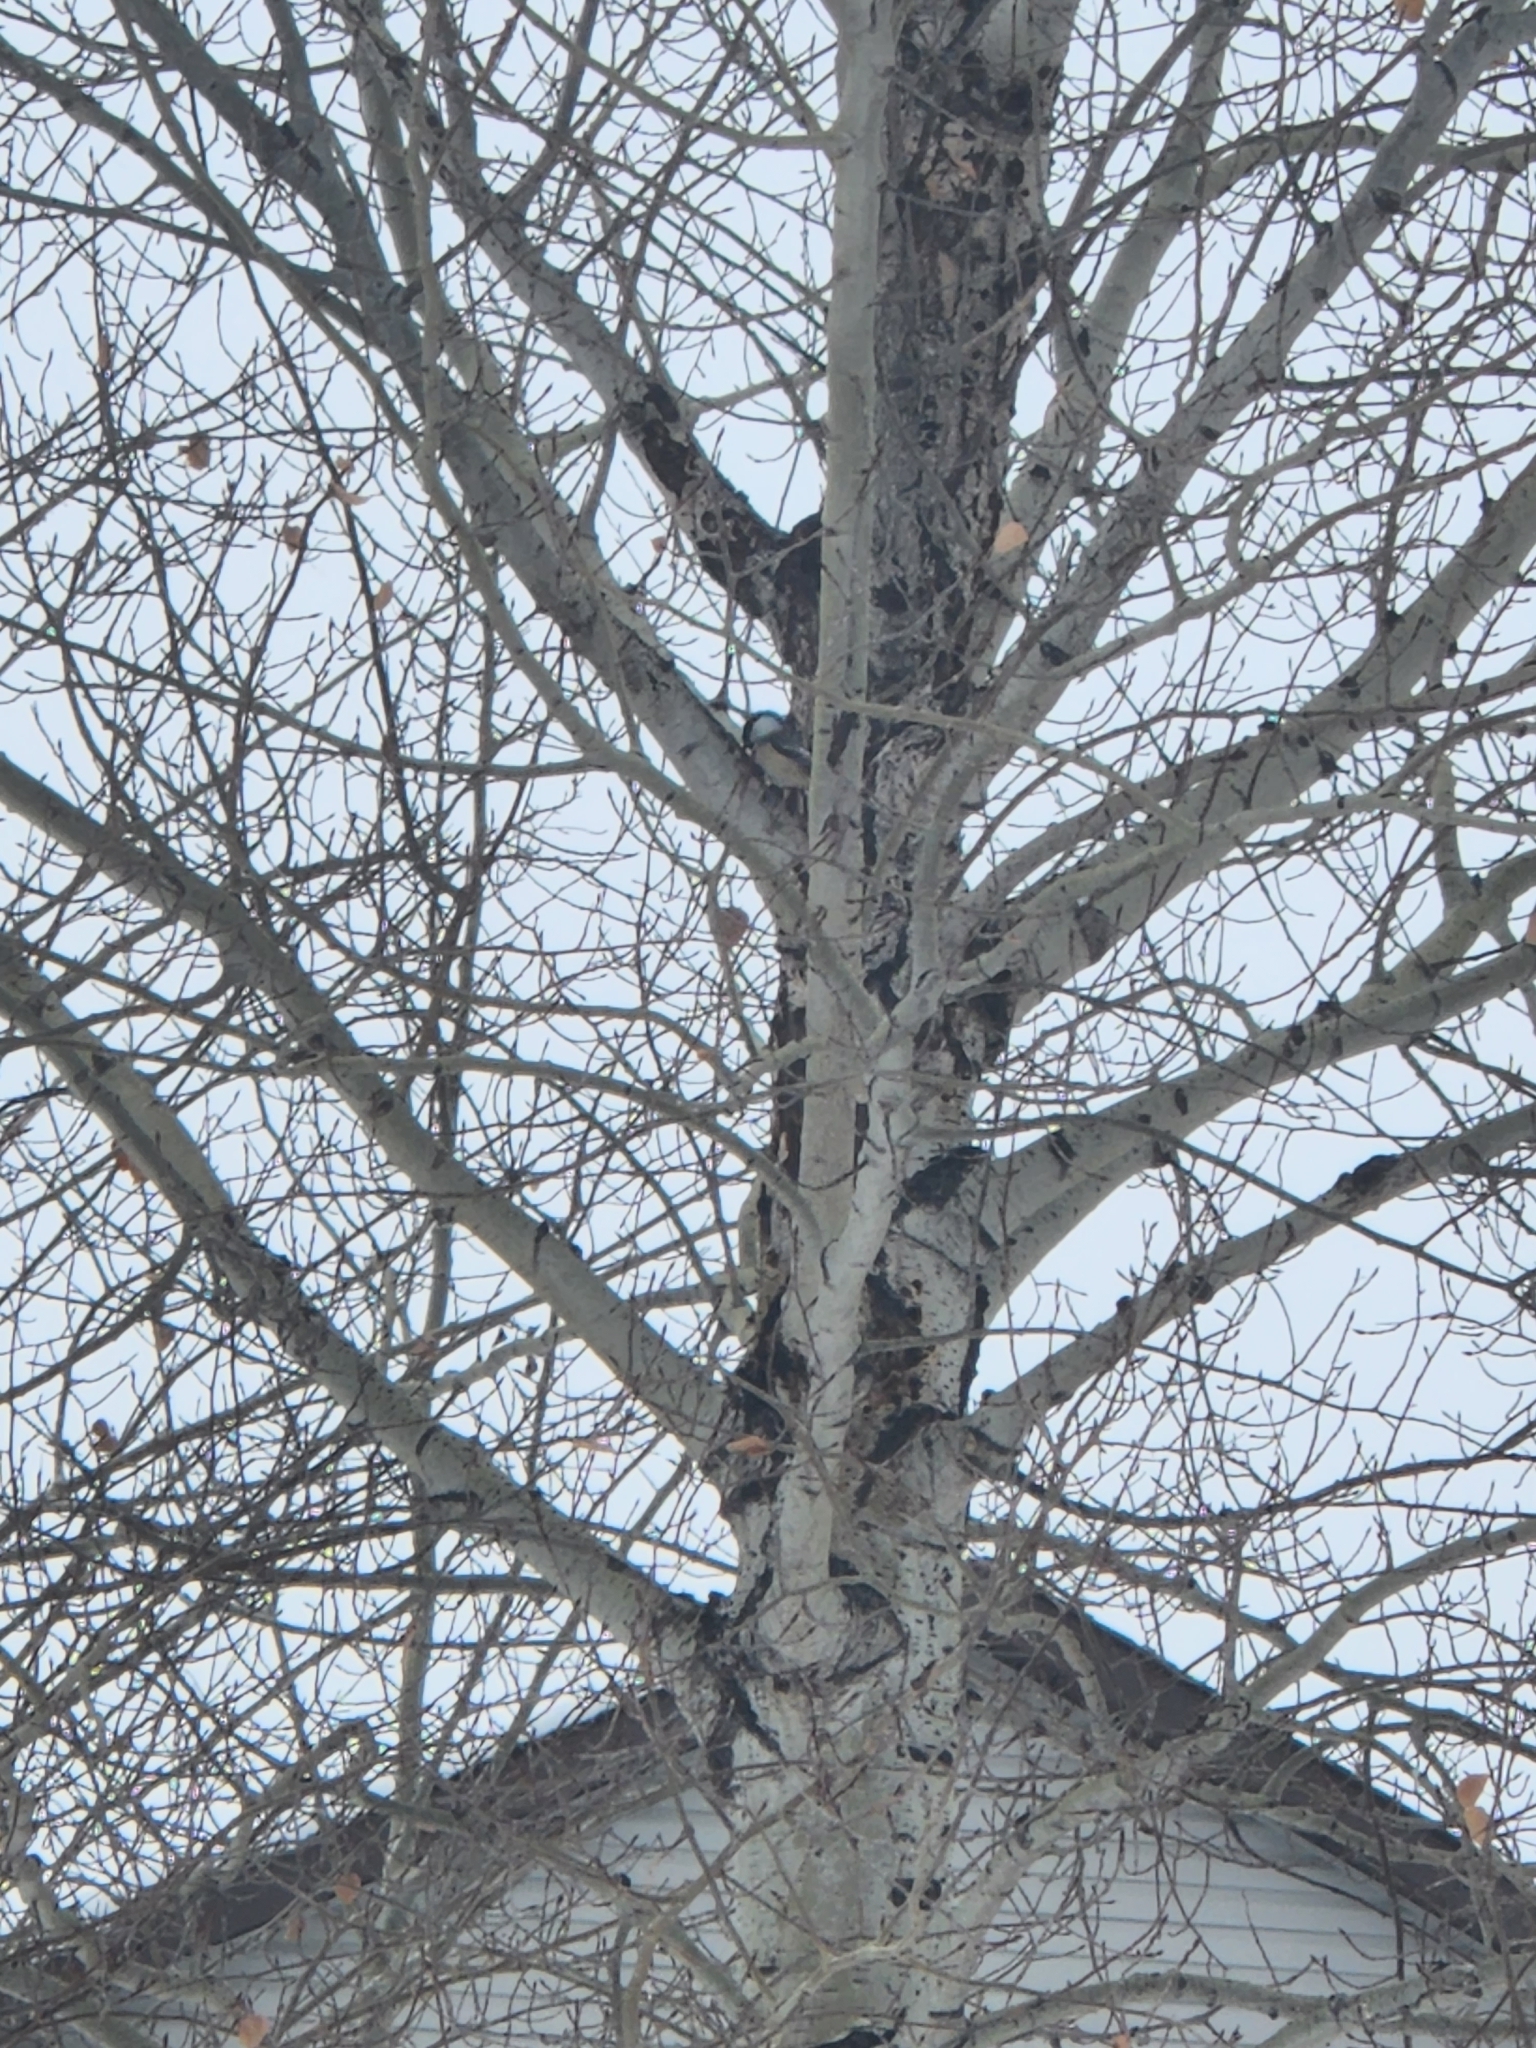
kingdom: Animalia
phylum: Chordata
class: Aves
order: Passeriformes
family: Paridae
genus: Poecile
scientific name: Poecile atricapillus
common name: Black-capped chickadee
